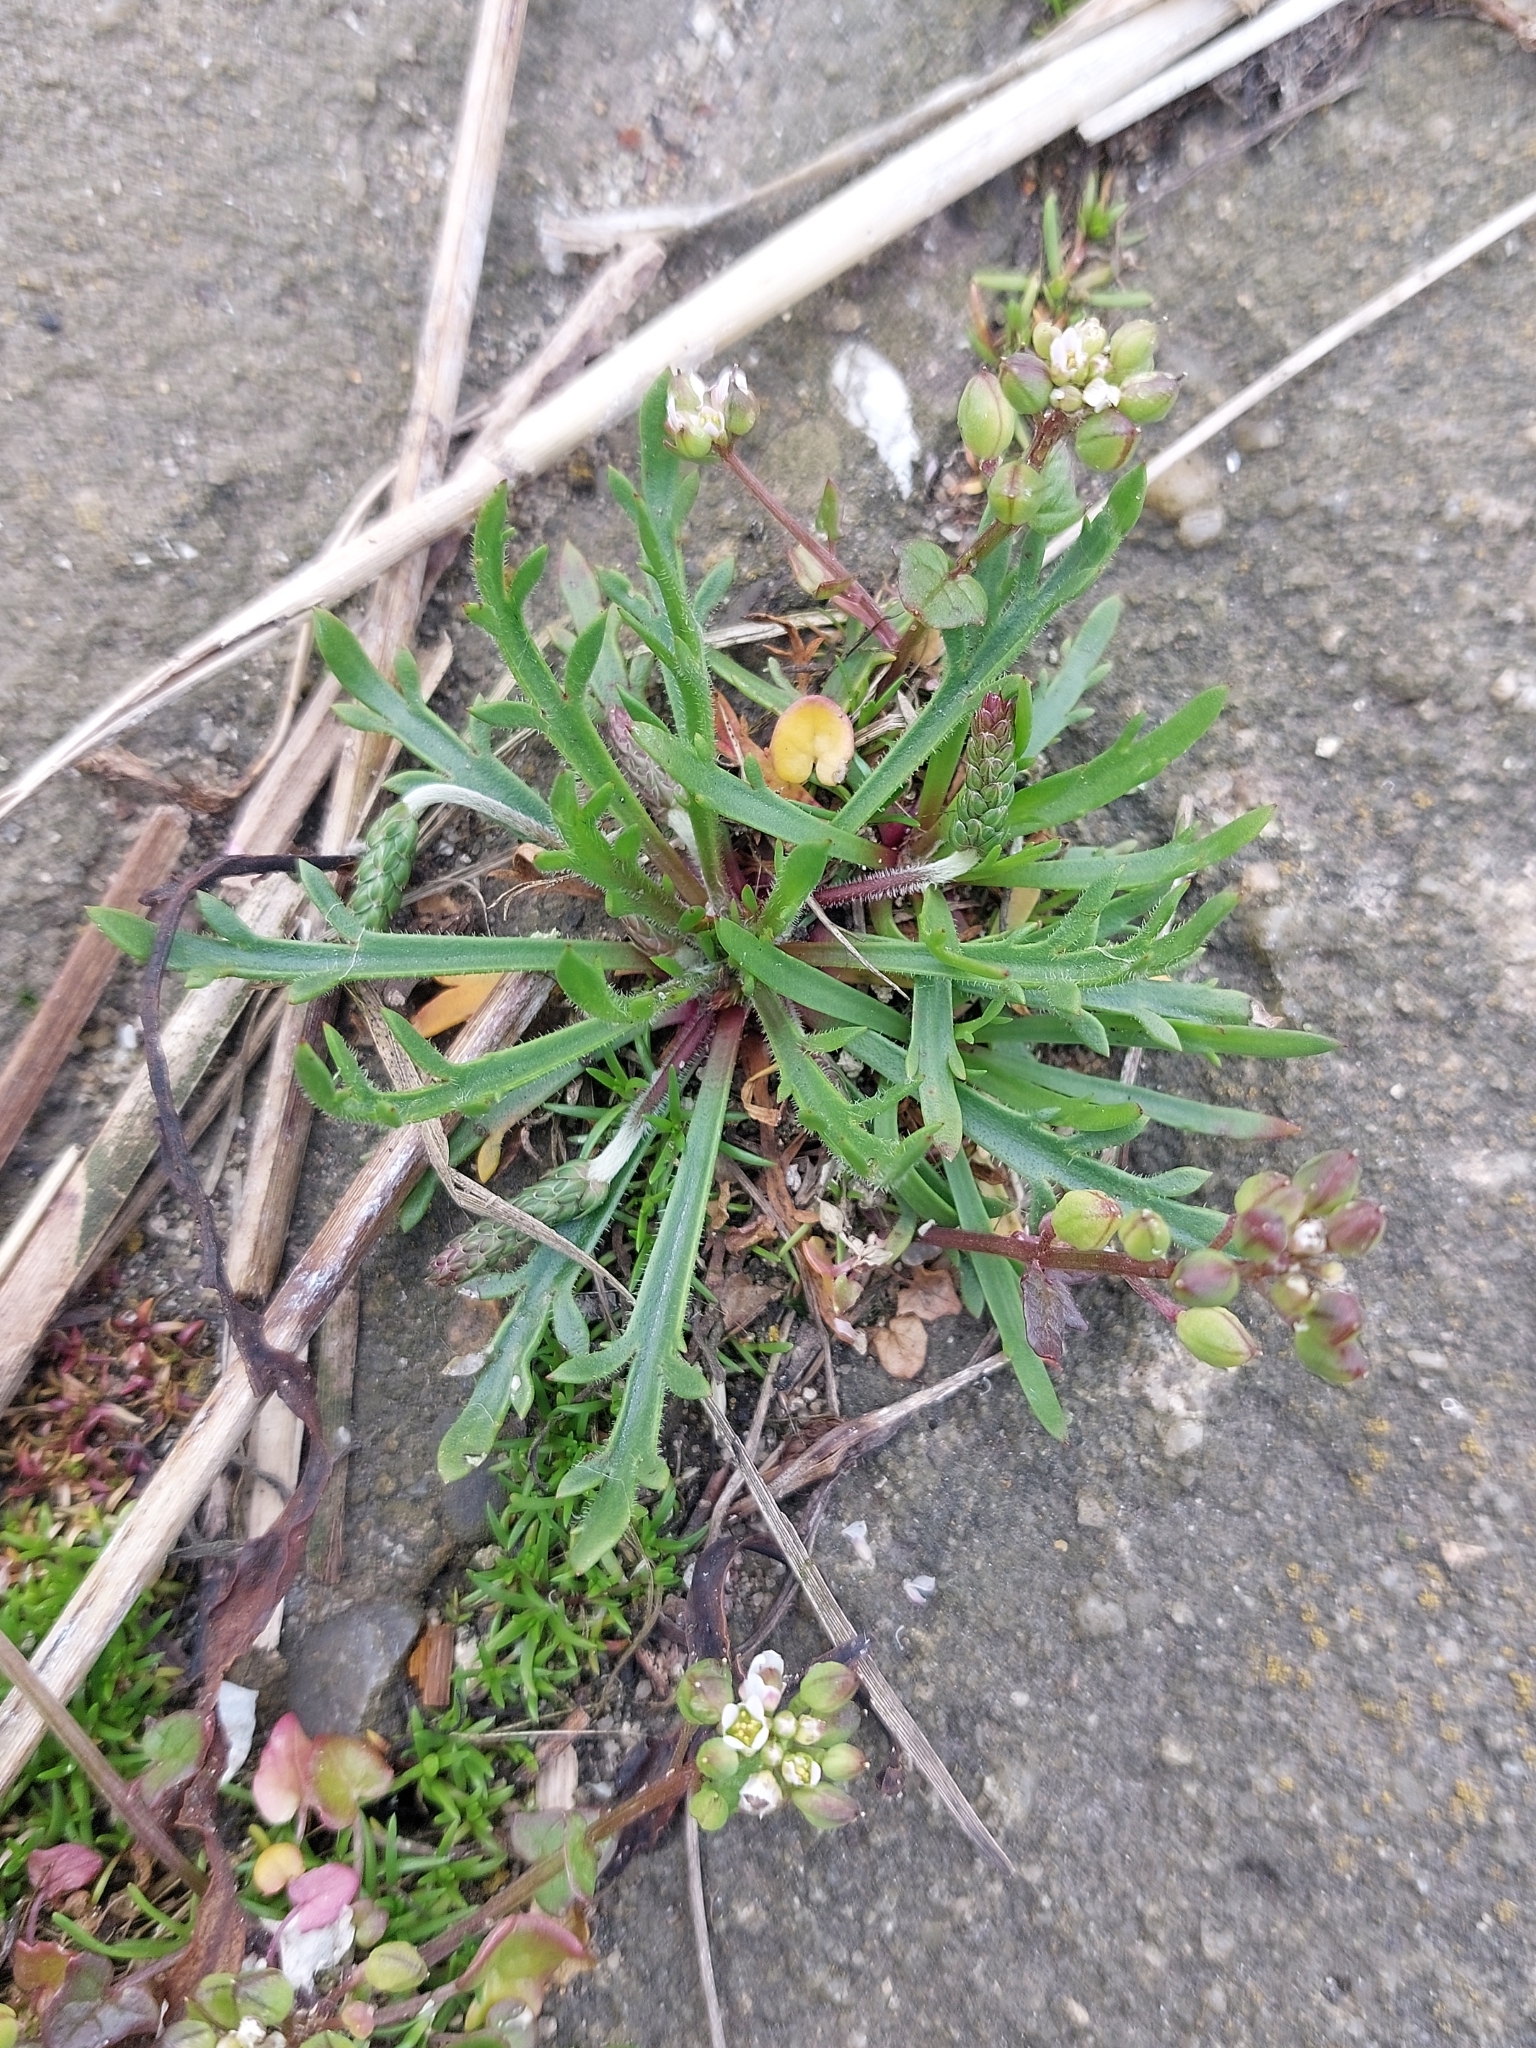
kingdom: Plantae
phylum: Tracheophyta
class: Magnoliopsida
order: Lamiales
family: Plantaginaceae
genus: Plantago
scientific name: Plantago coronopus
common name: Buck's-horn plantain
